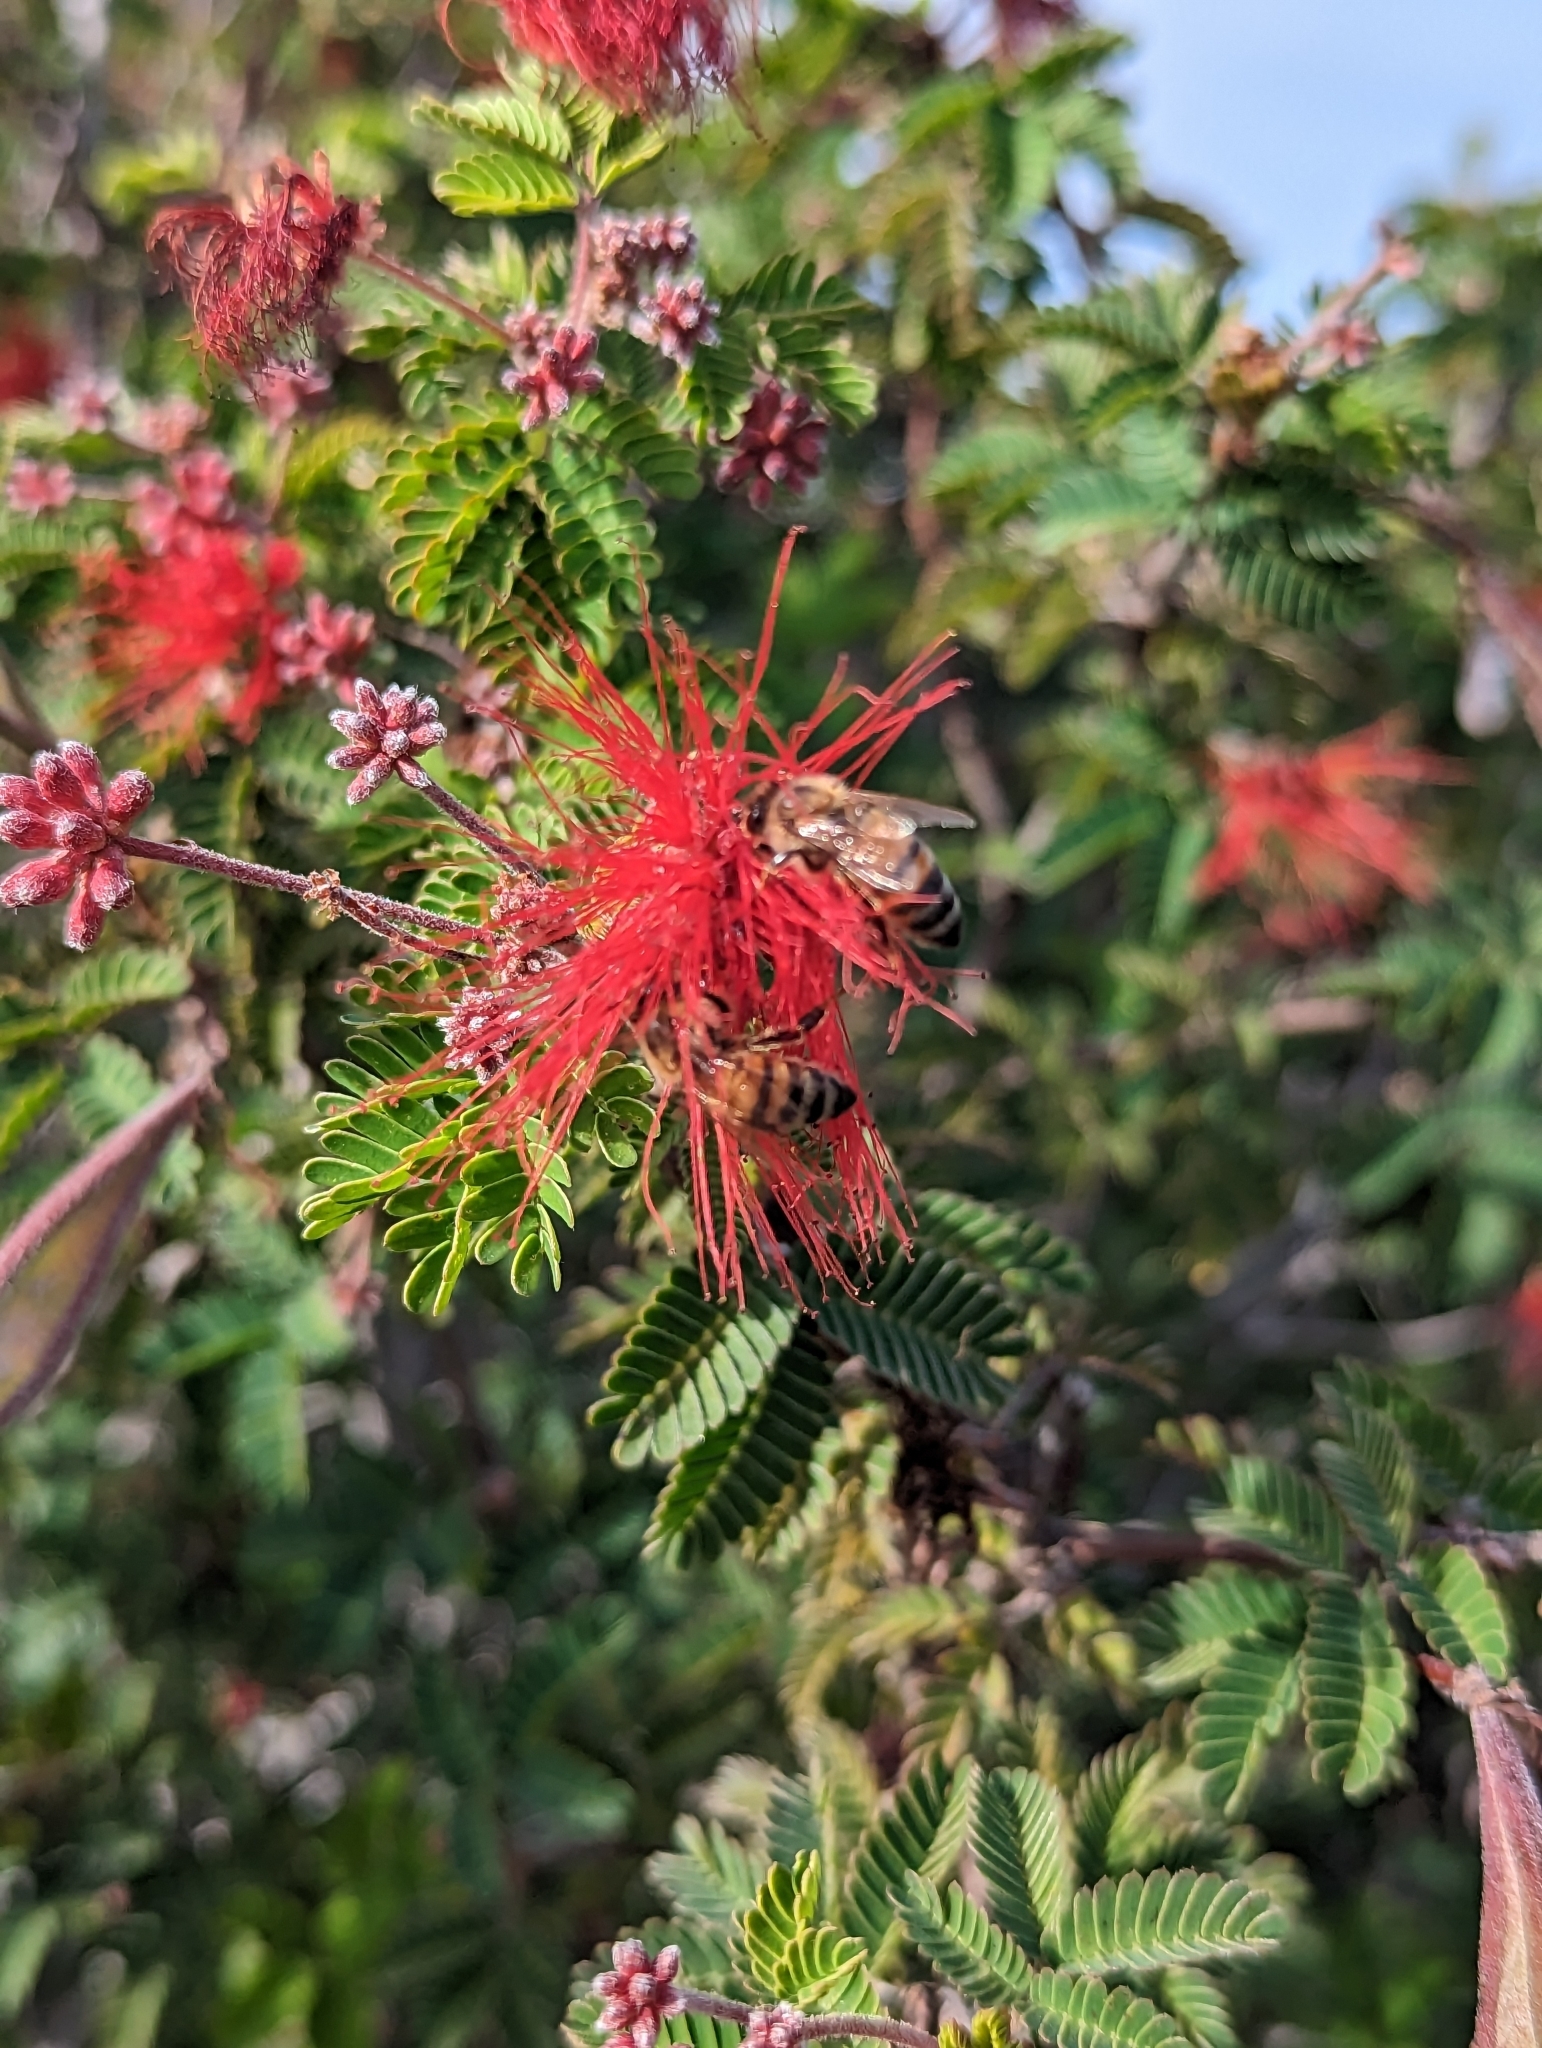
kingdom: Animalia
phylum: Arthropoda
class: Insecta
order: Hymenoptera
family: Apidae
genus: Apis
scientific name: Apis mellifera
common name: Honey bee
